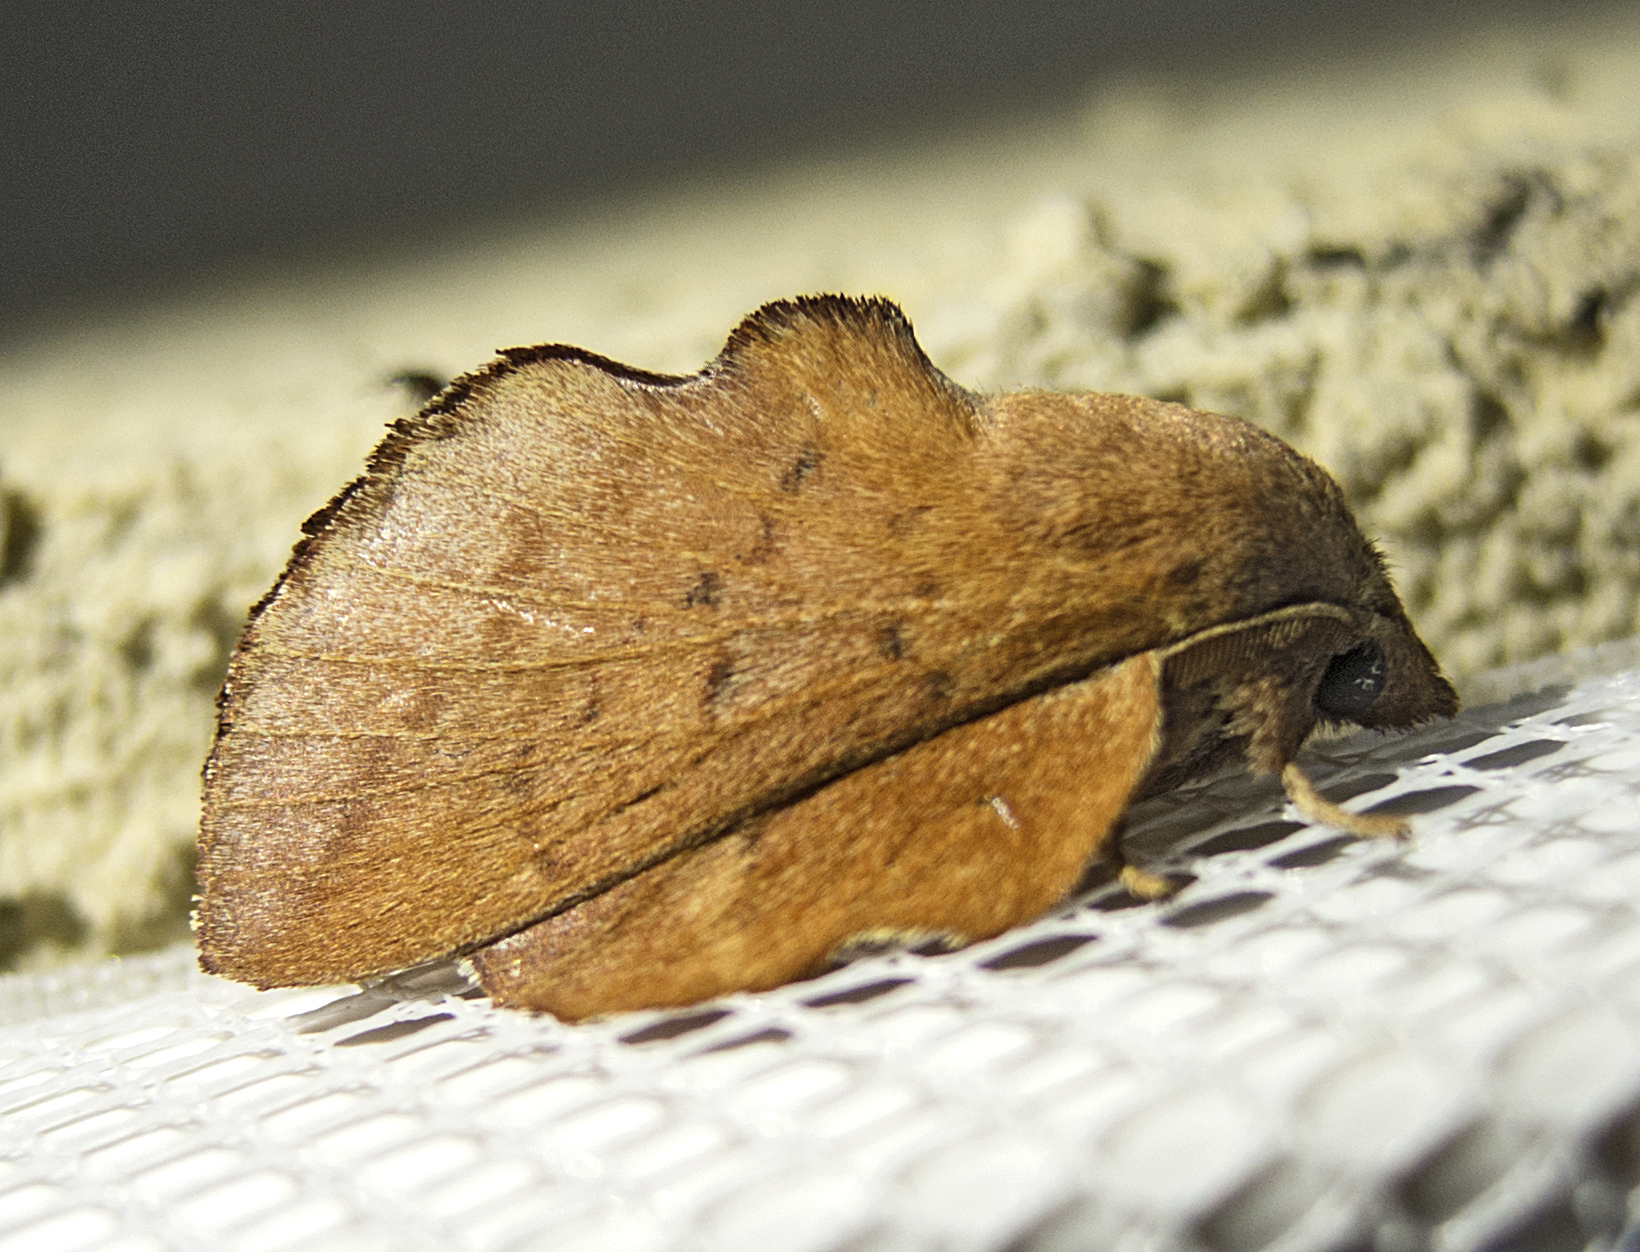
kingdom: Animalia
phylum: Arthropoda
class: Insecta
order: Lepidoptera
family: Lasiocampidae
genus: Phyllodesma
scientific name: Phyllodesma tremulifolia
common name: Aspen lappet
